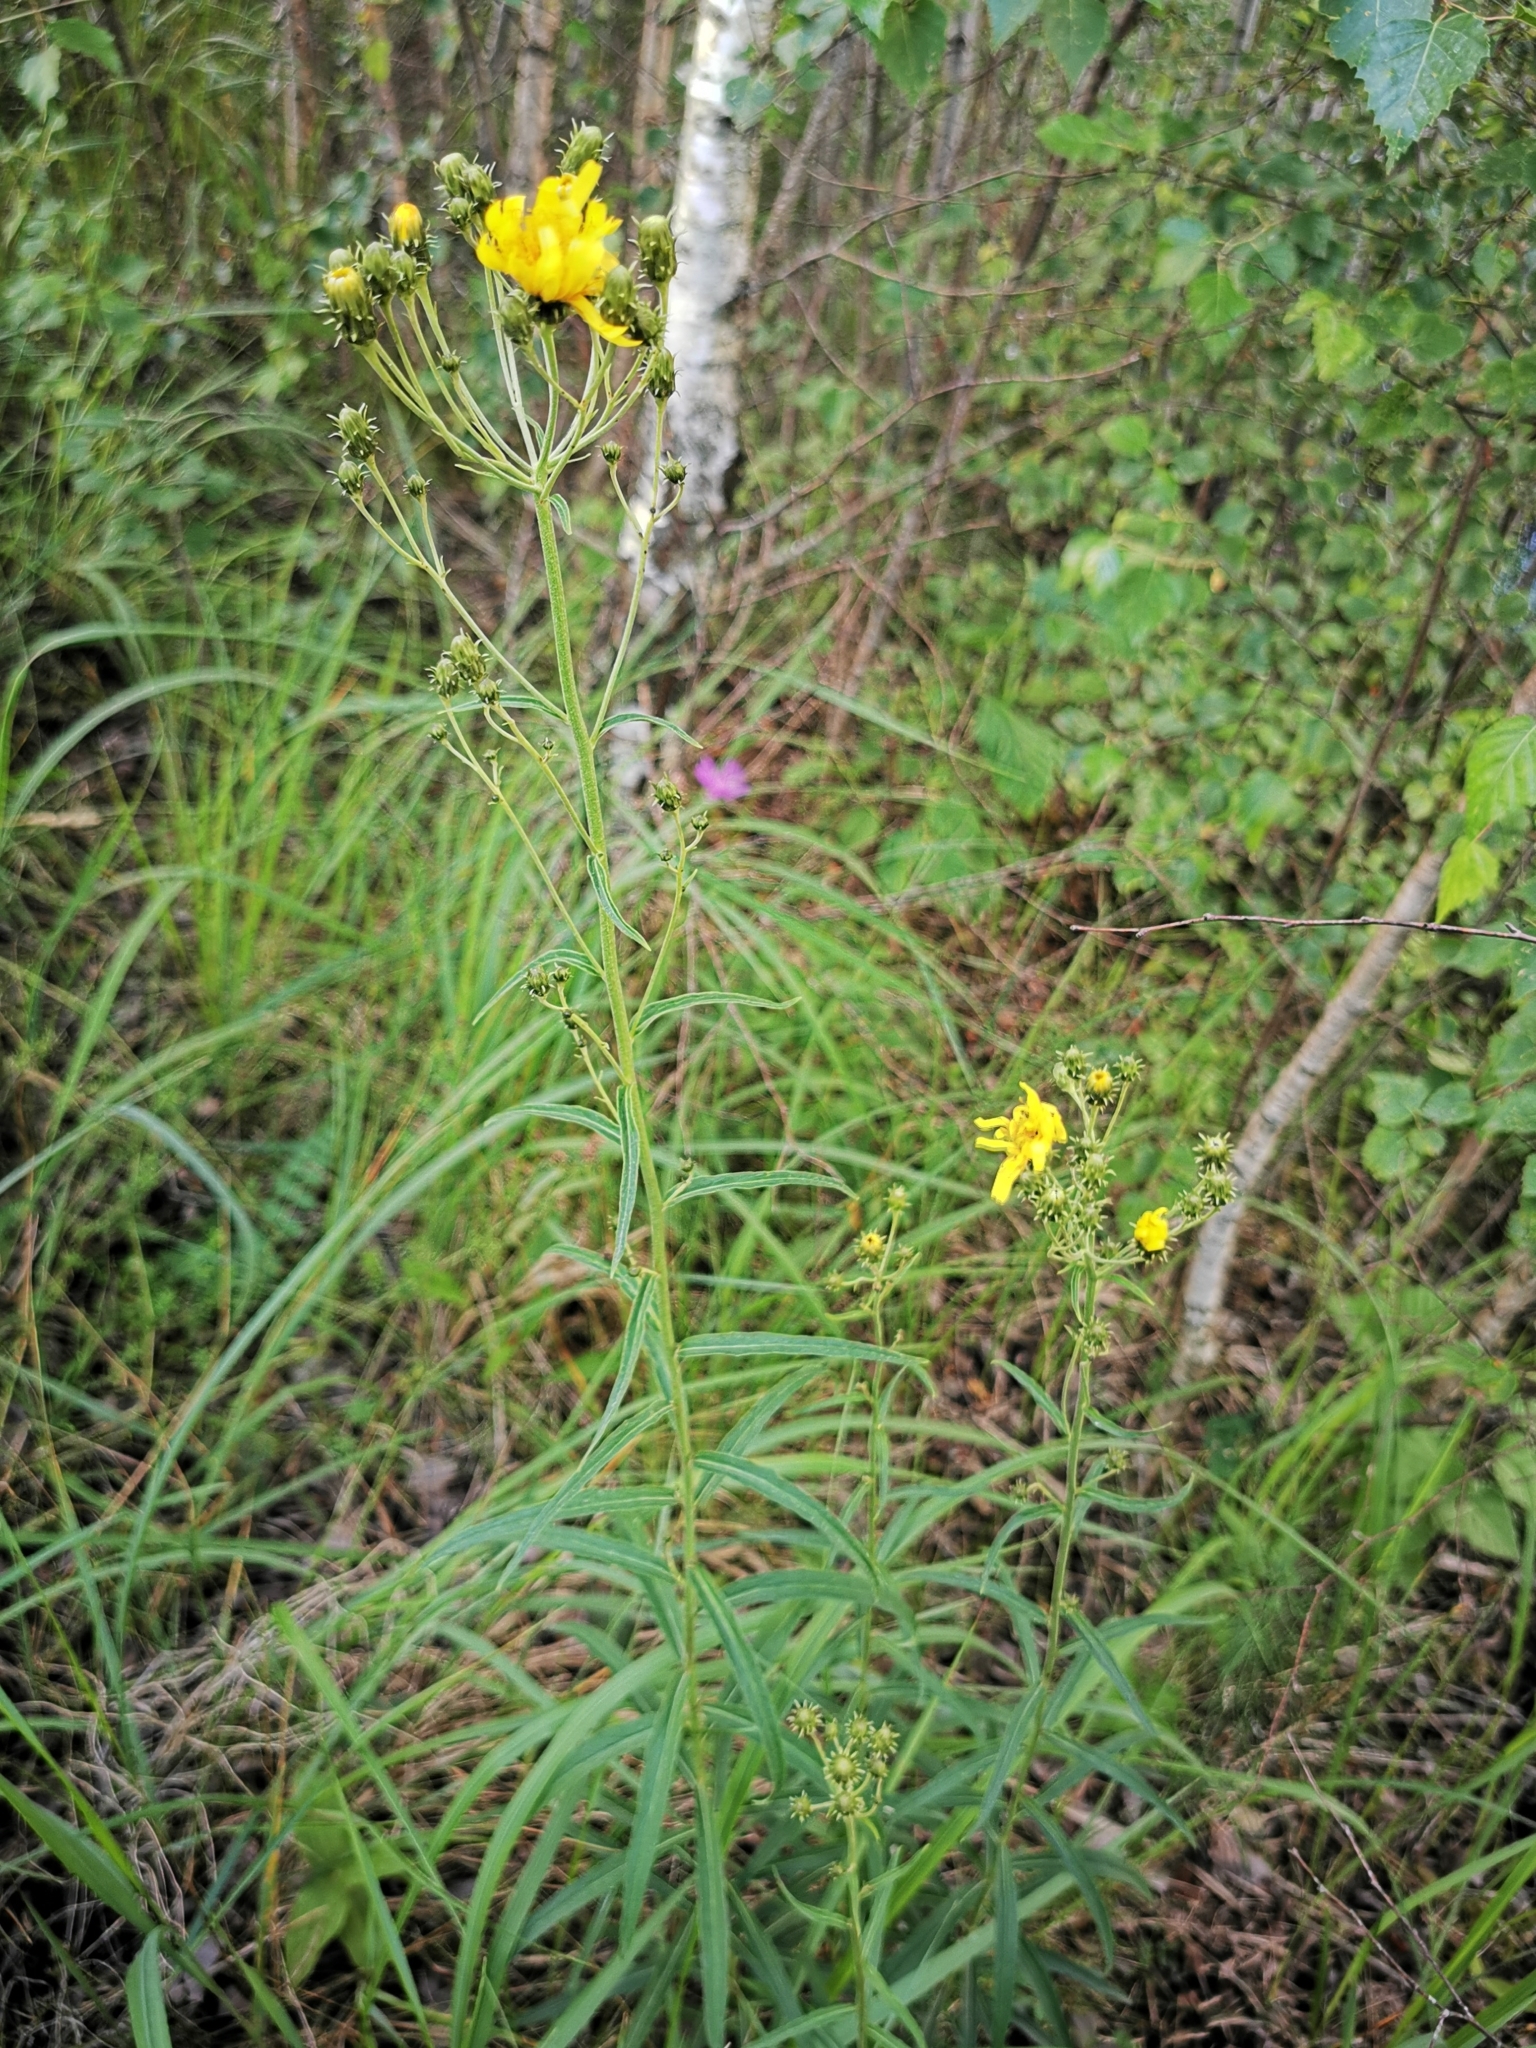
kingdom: Plantae
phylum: Tracheophyta
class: Magnoliopsida
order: Asterales
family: Asteraceae
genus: Hieracium
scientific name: Hieracium umbellatum
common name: Northern hawkweed
